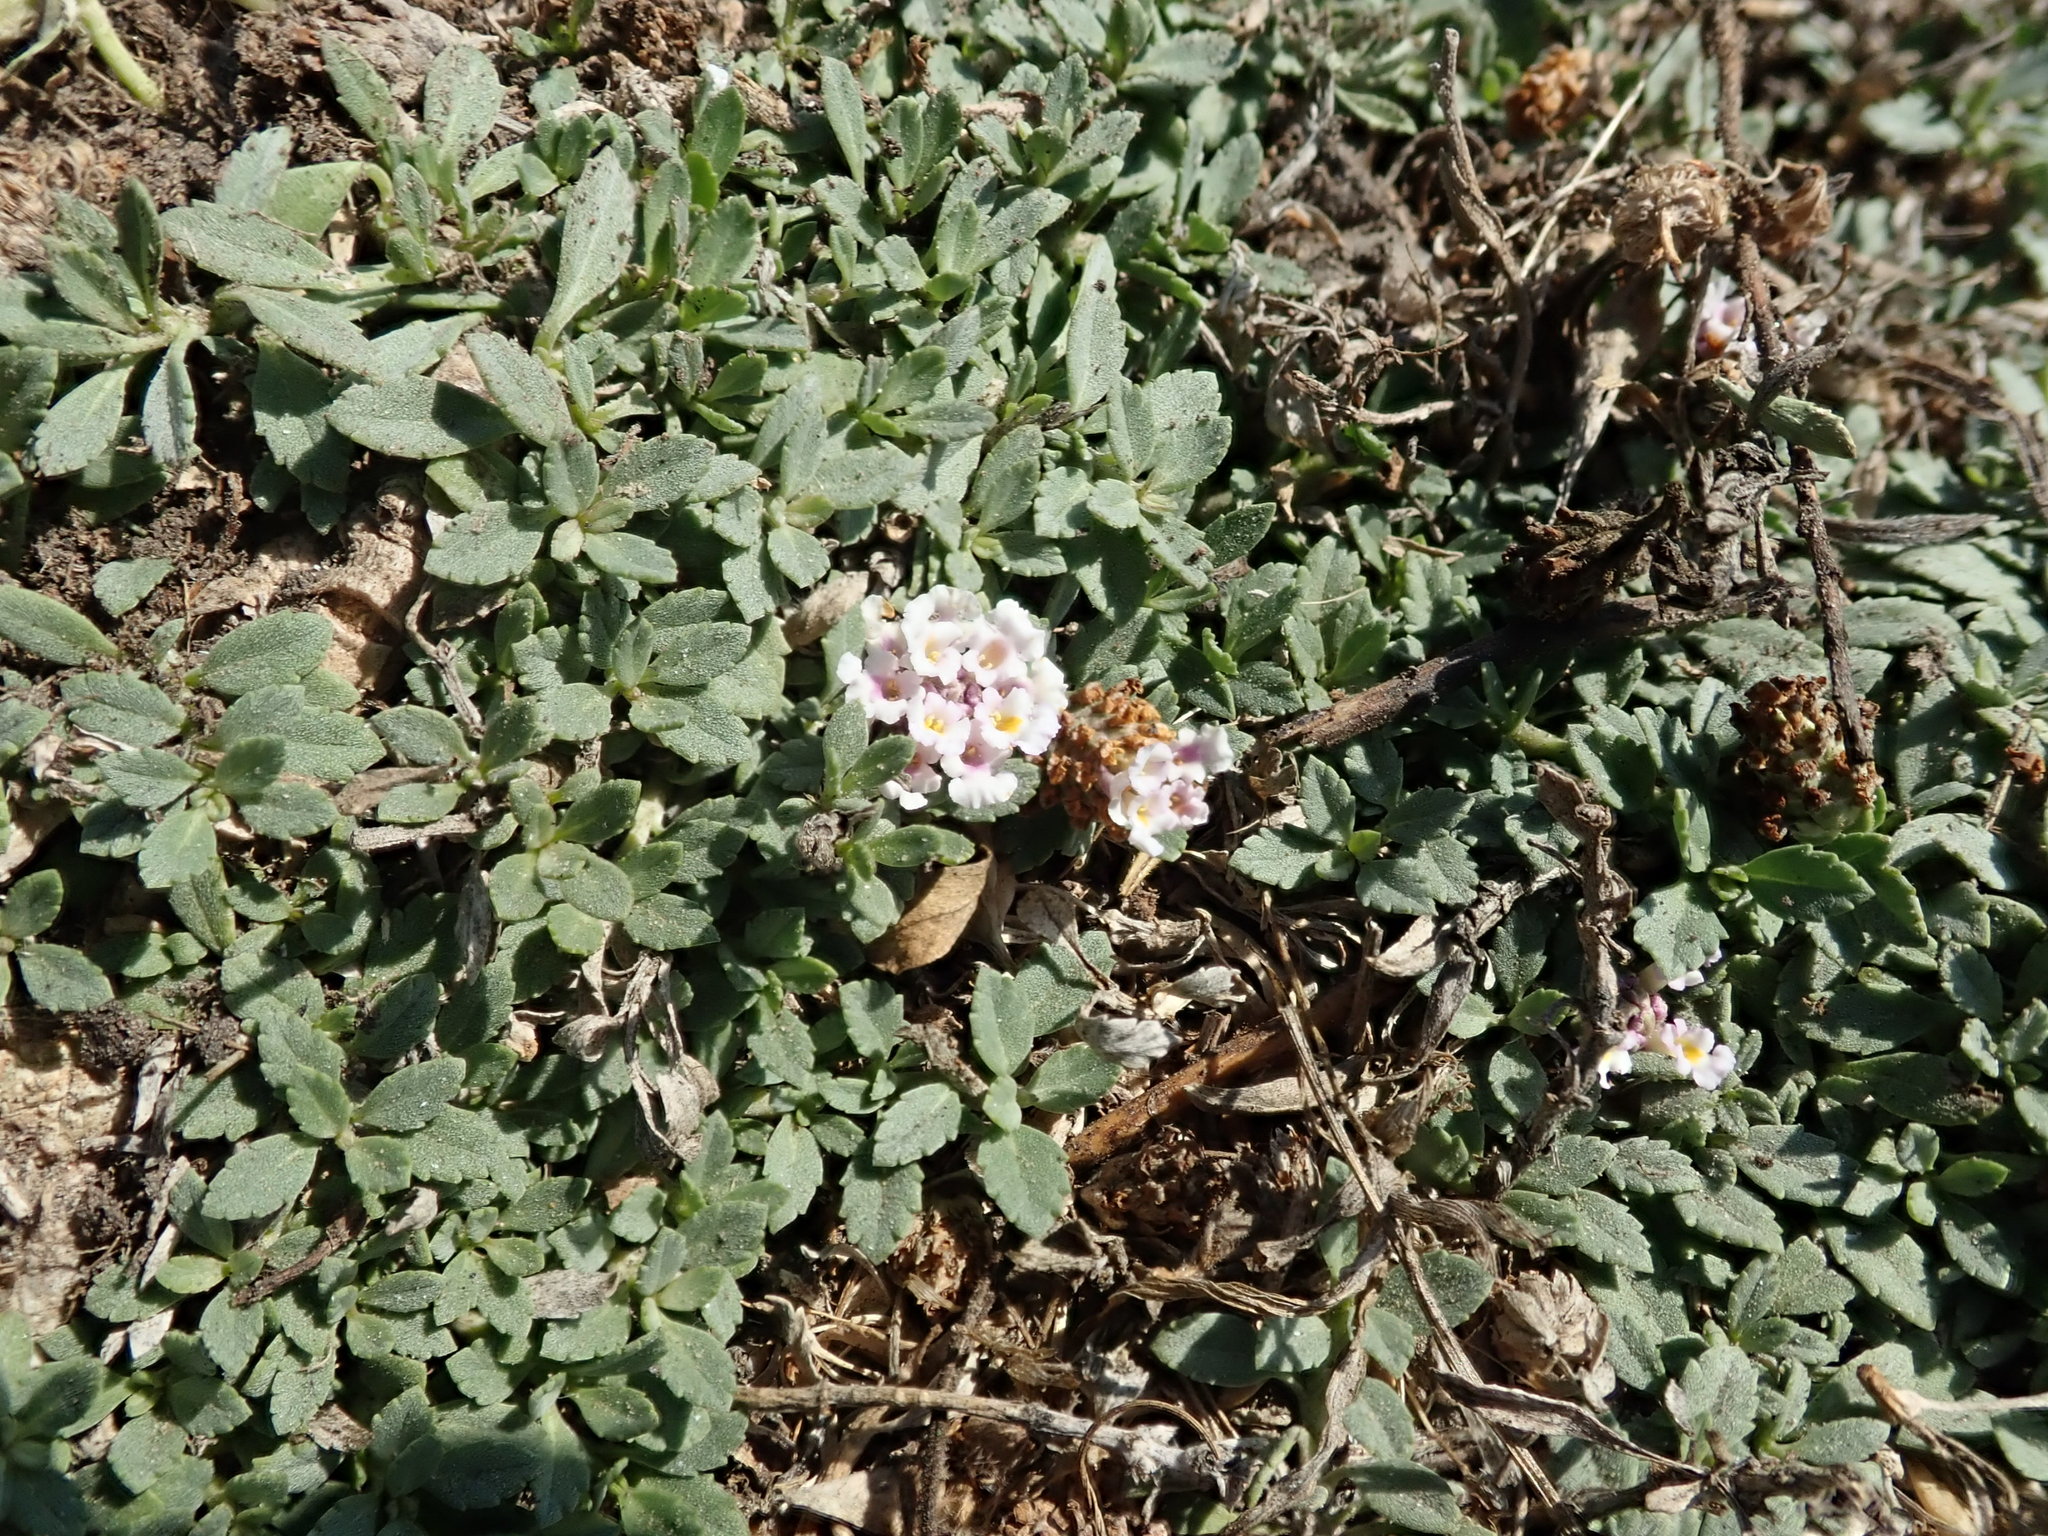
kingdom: Plantae
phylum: Tracheophyta
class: Magnoliopsida
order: Lamiales
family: Verbenaceae
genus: Phyla
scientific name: Phyla nodiflora
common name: Frogfruit
